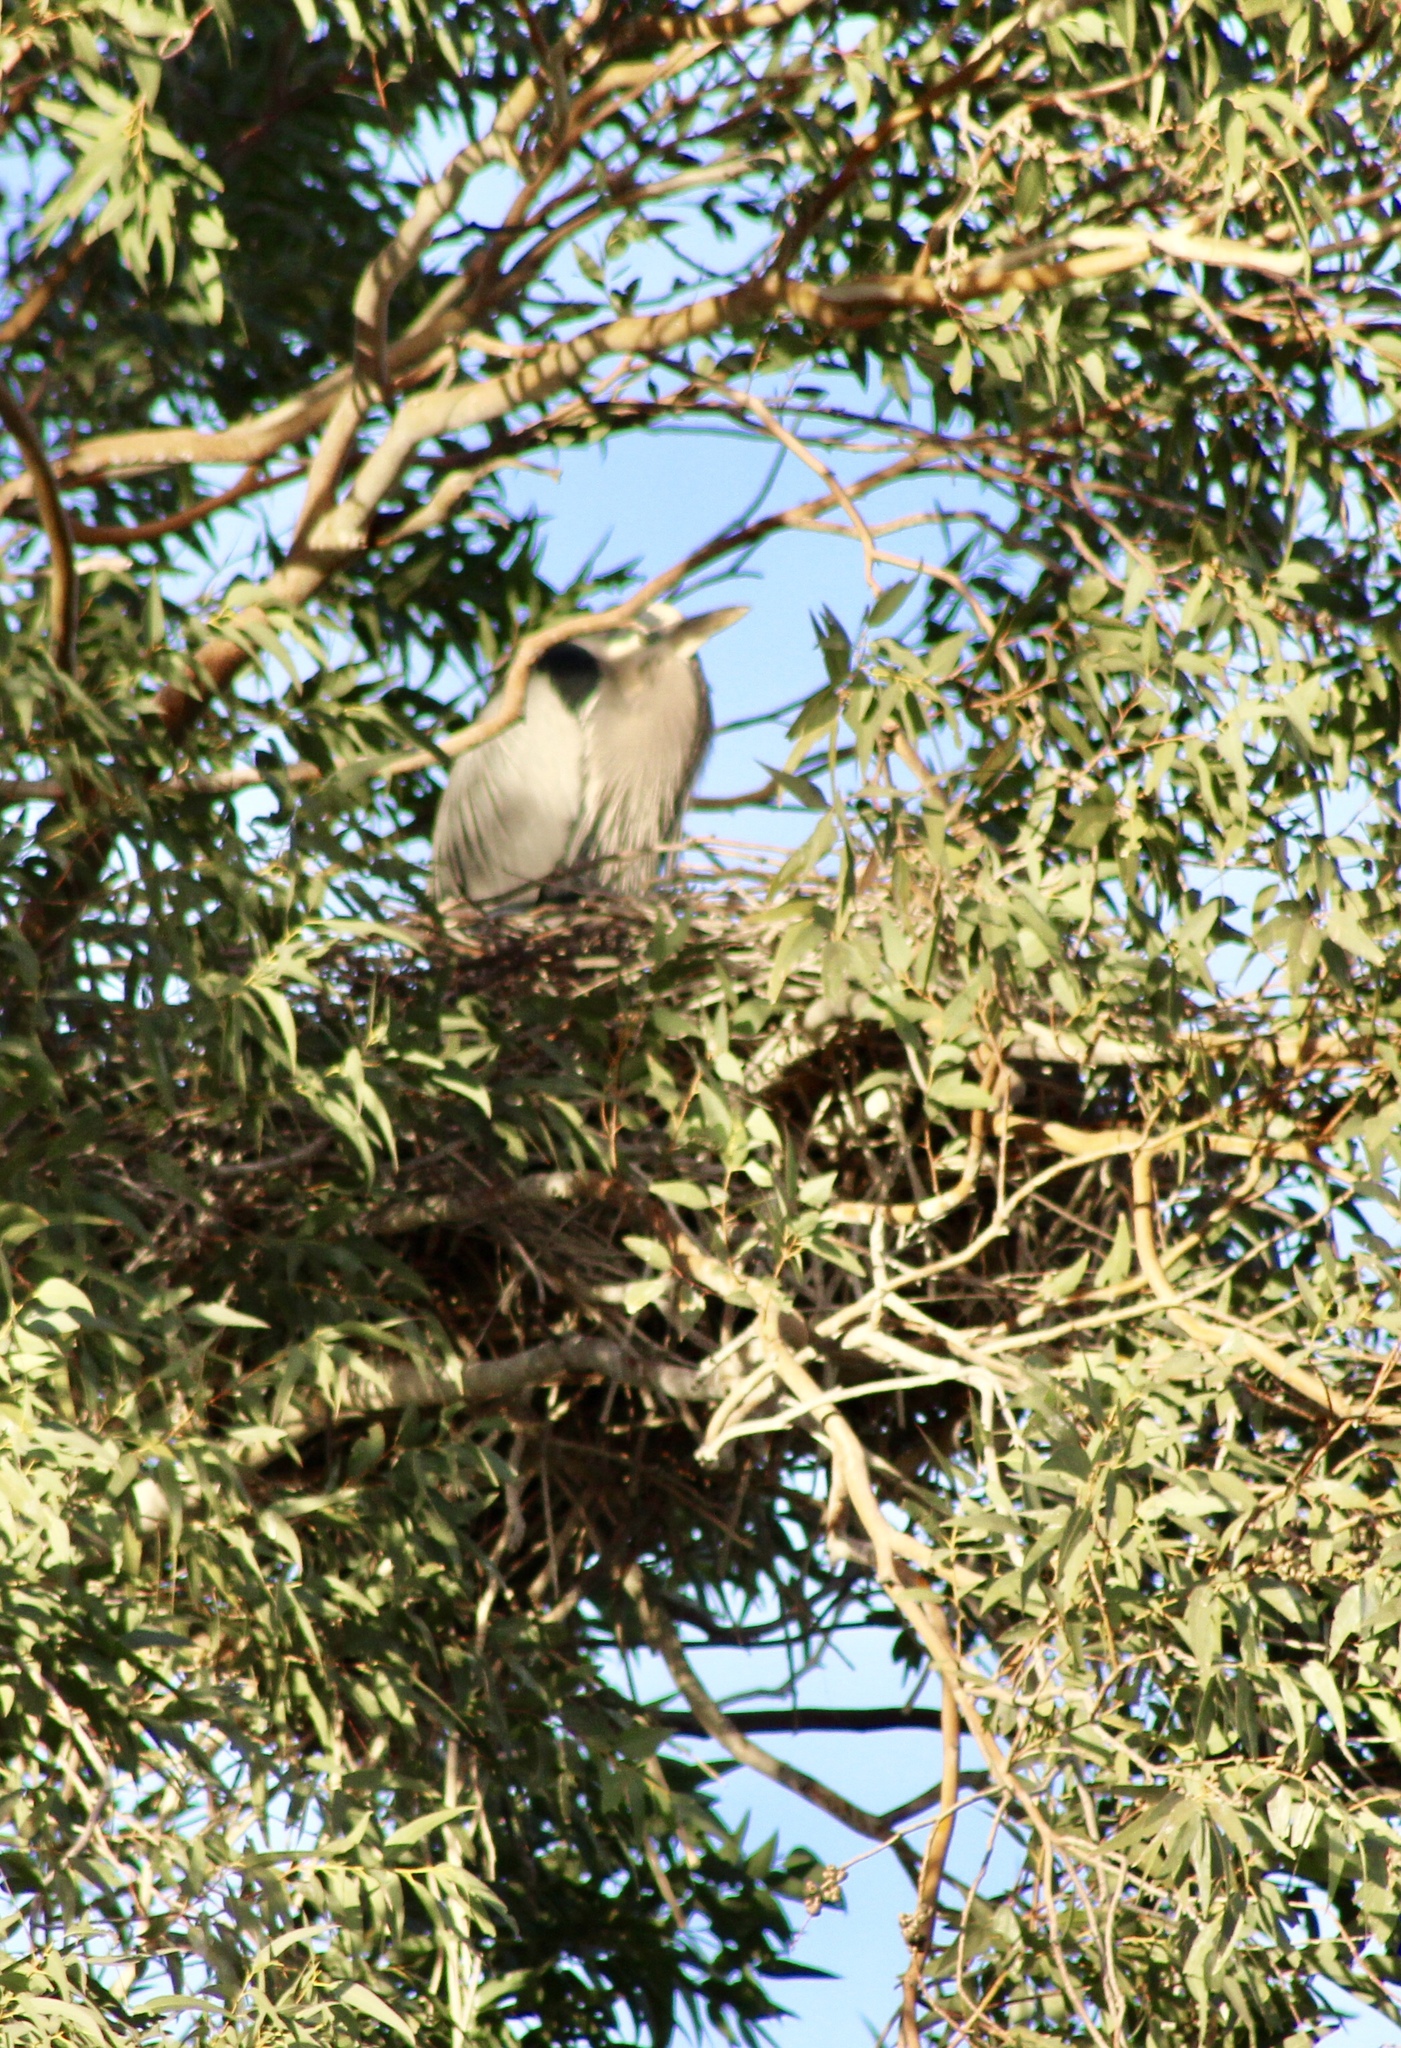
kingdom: Animalia
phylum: Chordata
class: Aves
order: Pelecaniformes
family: Ardeidae
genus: Ardea
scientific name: Ardea herodias
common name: Great blue heron
